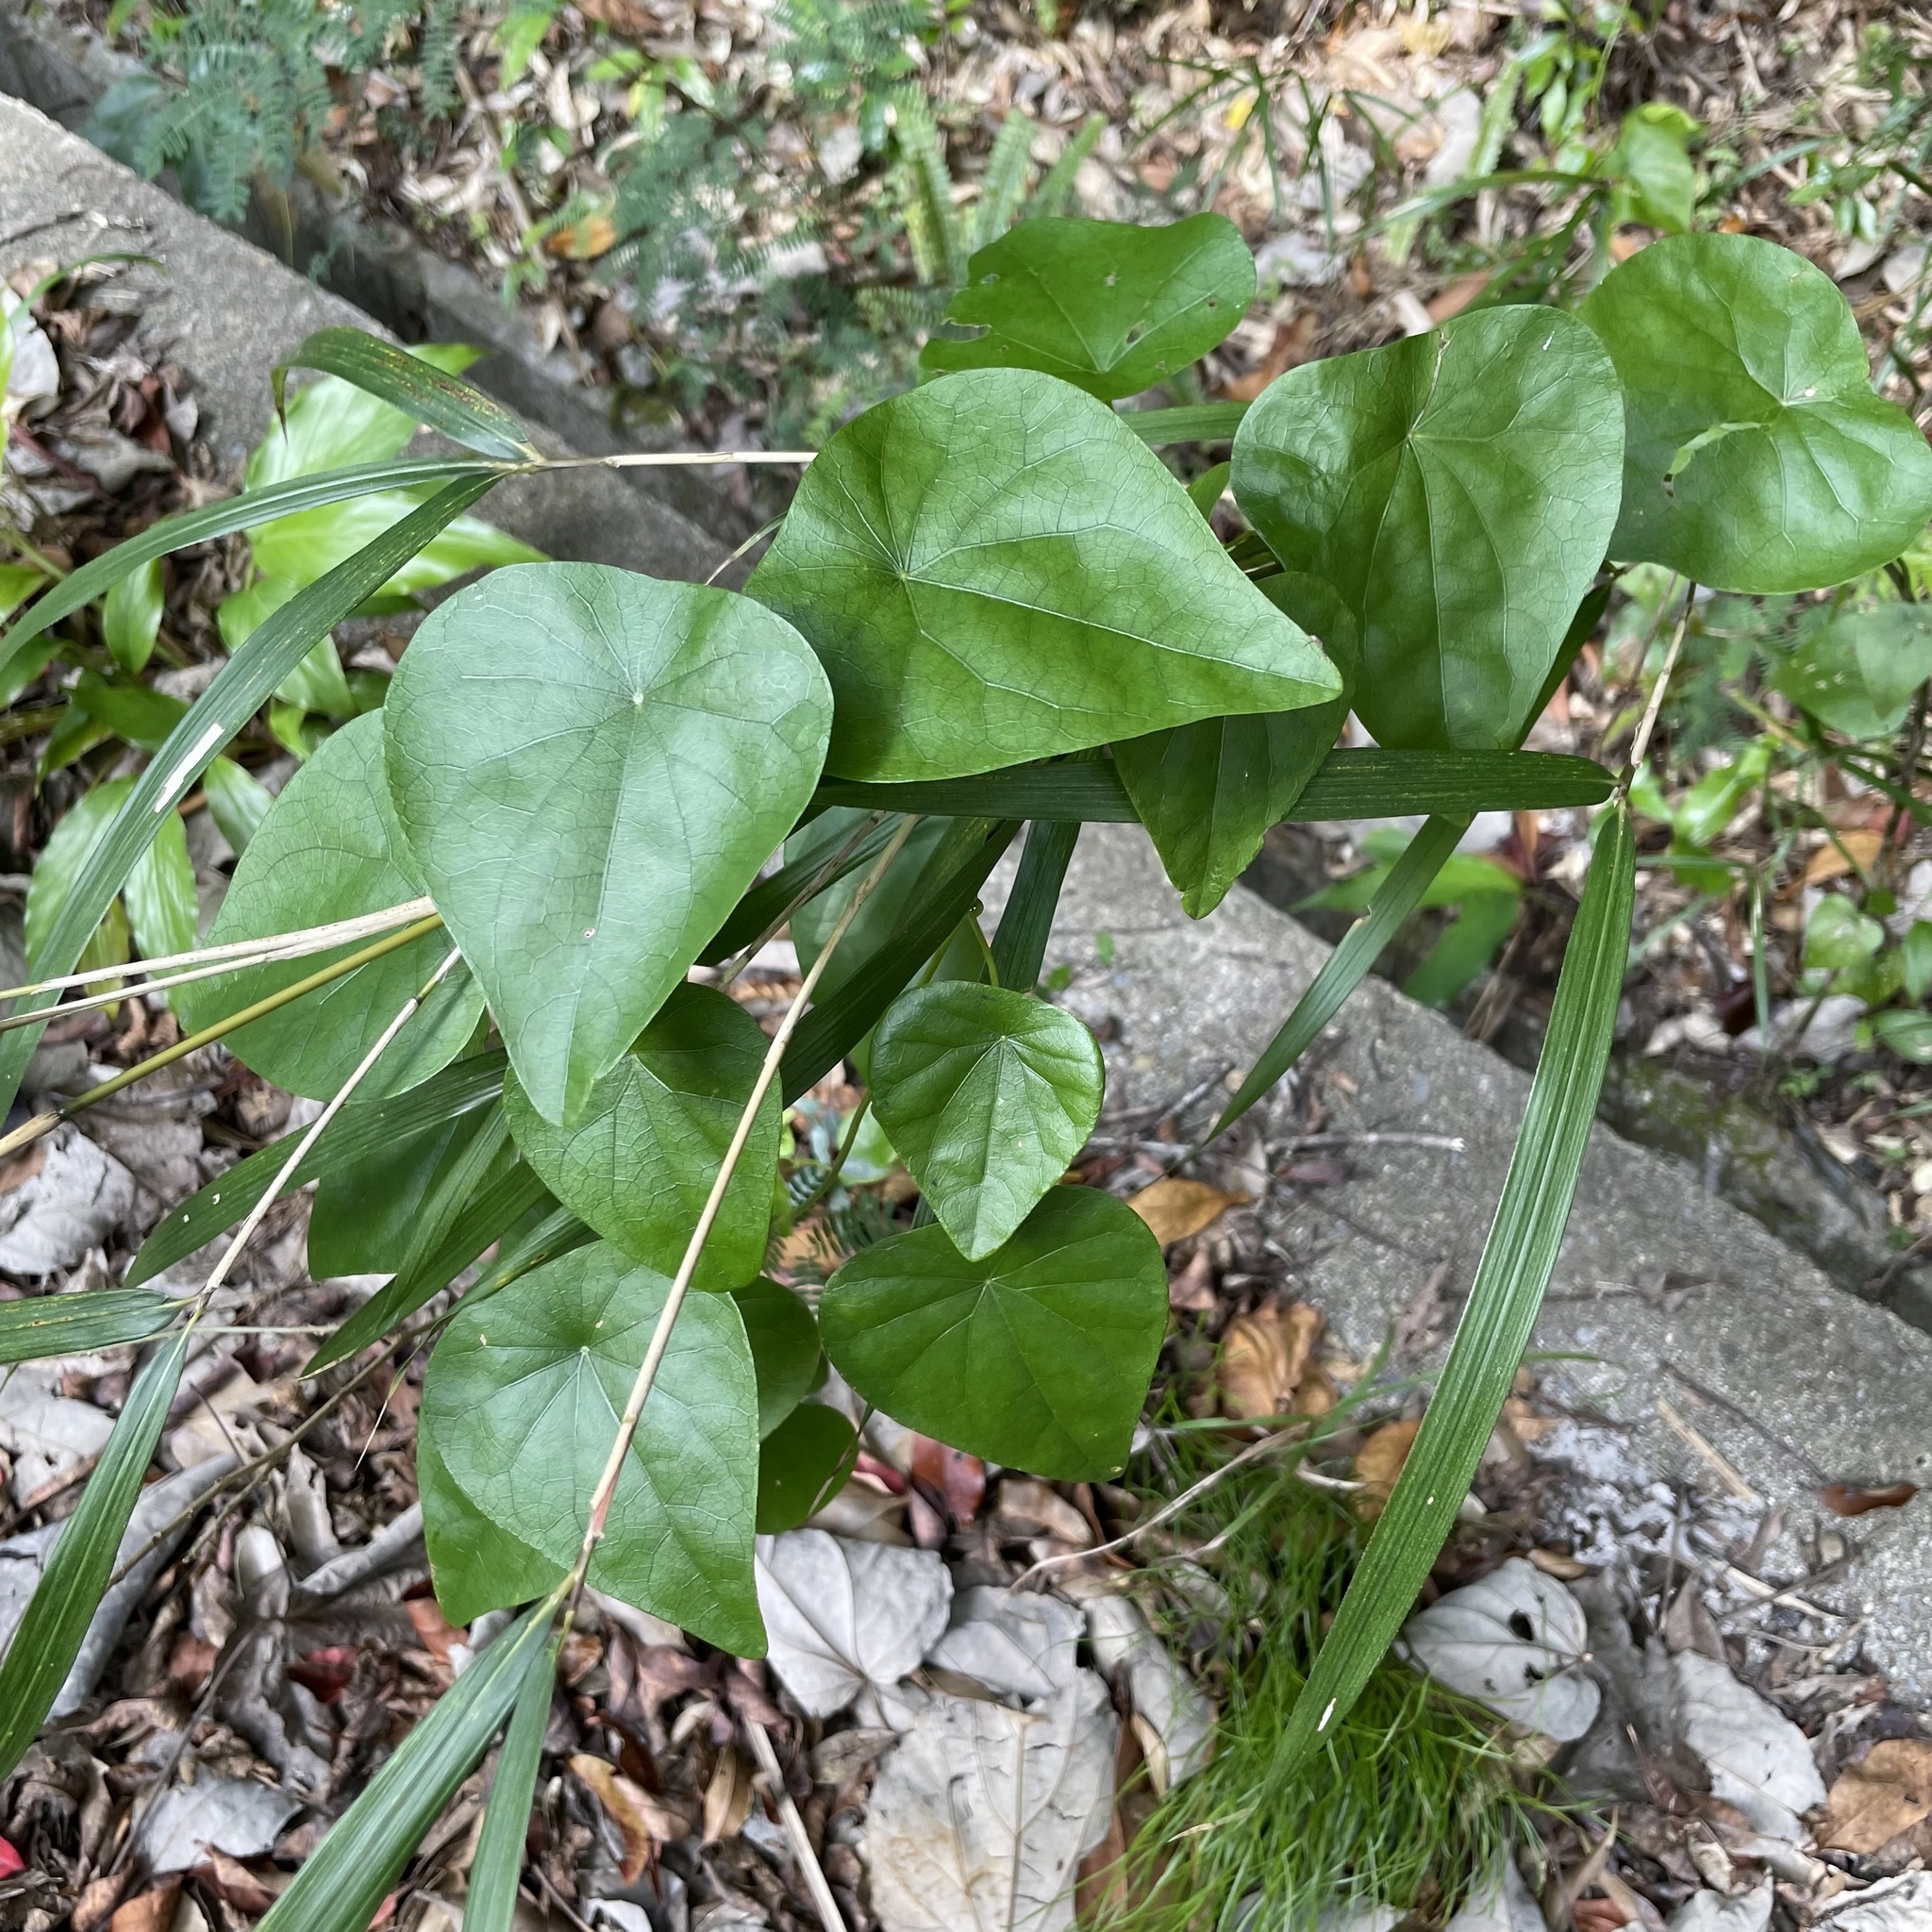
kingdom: Plantae
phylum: Tracheophyta
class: Magnoliopsida
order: Ranunculales
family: Menispermaceae
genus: Stephania
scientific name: Stephania japonica
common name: Snake vine
